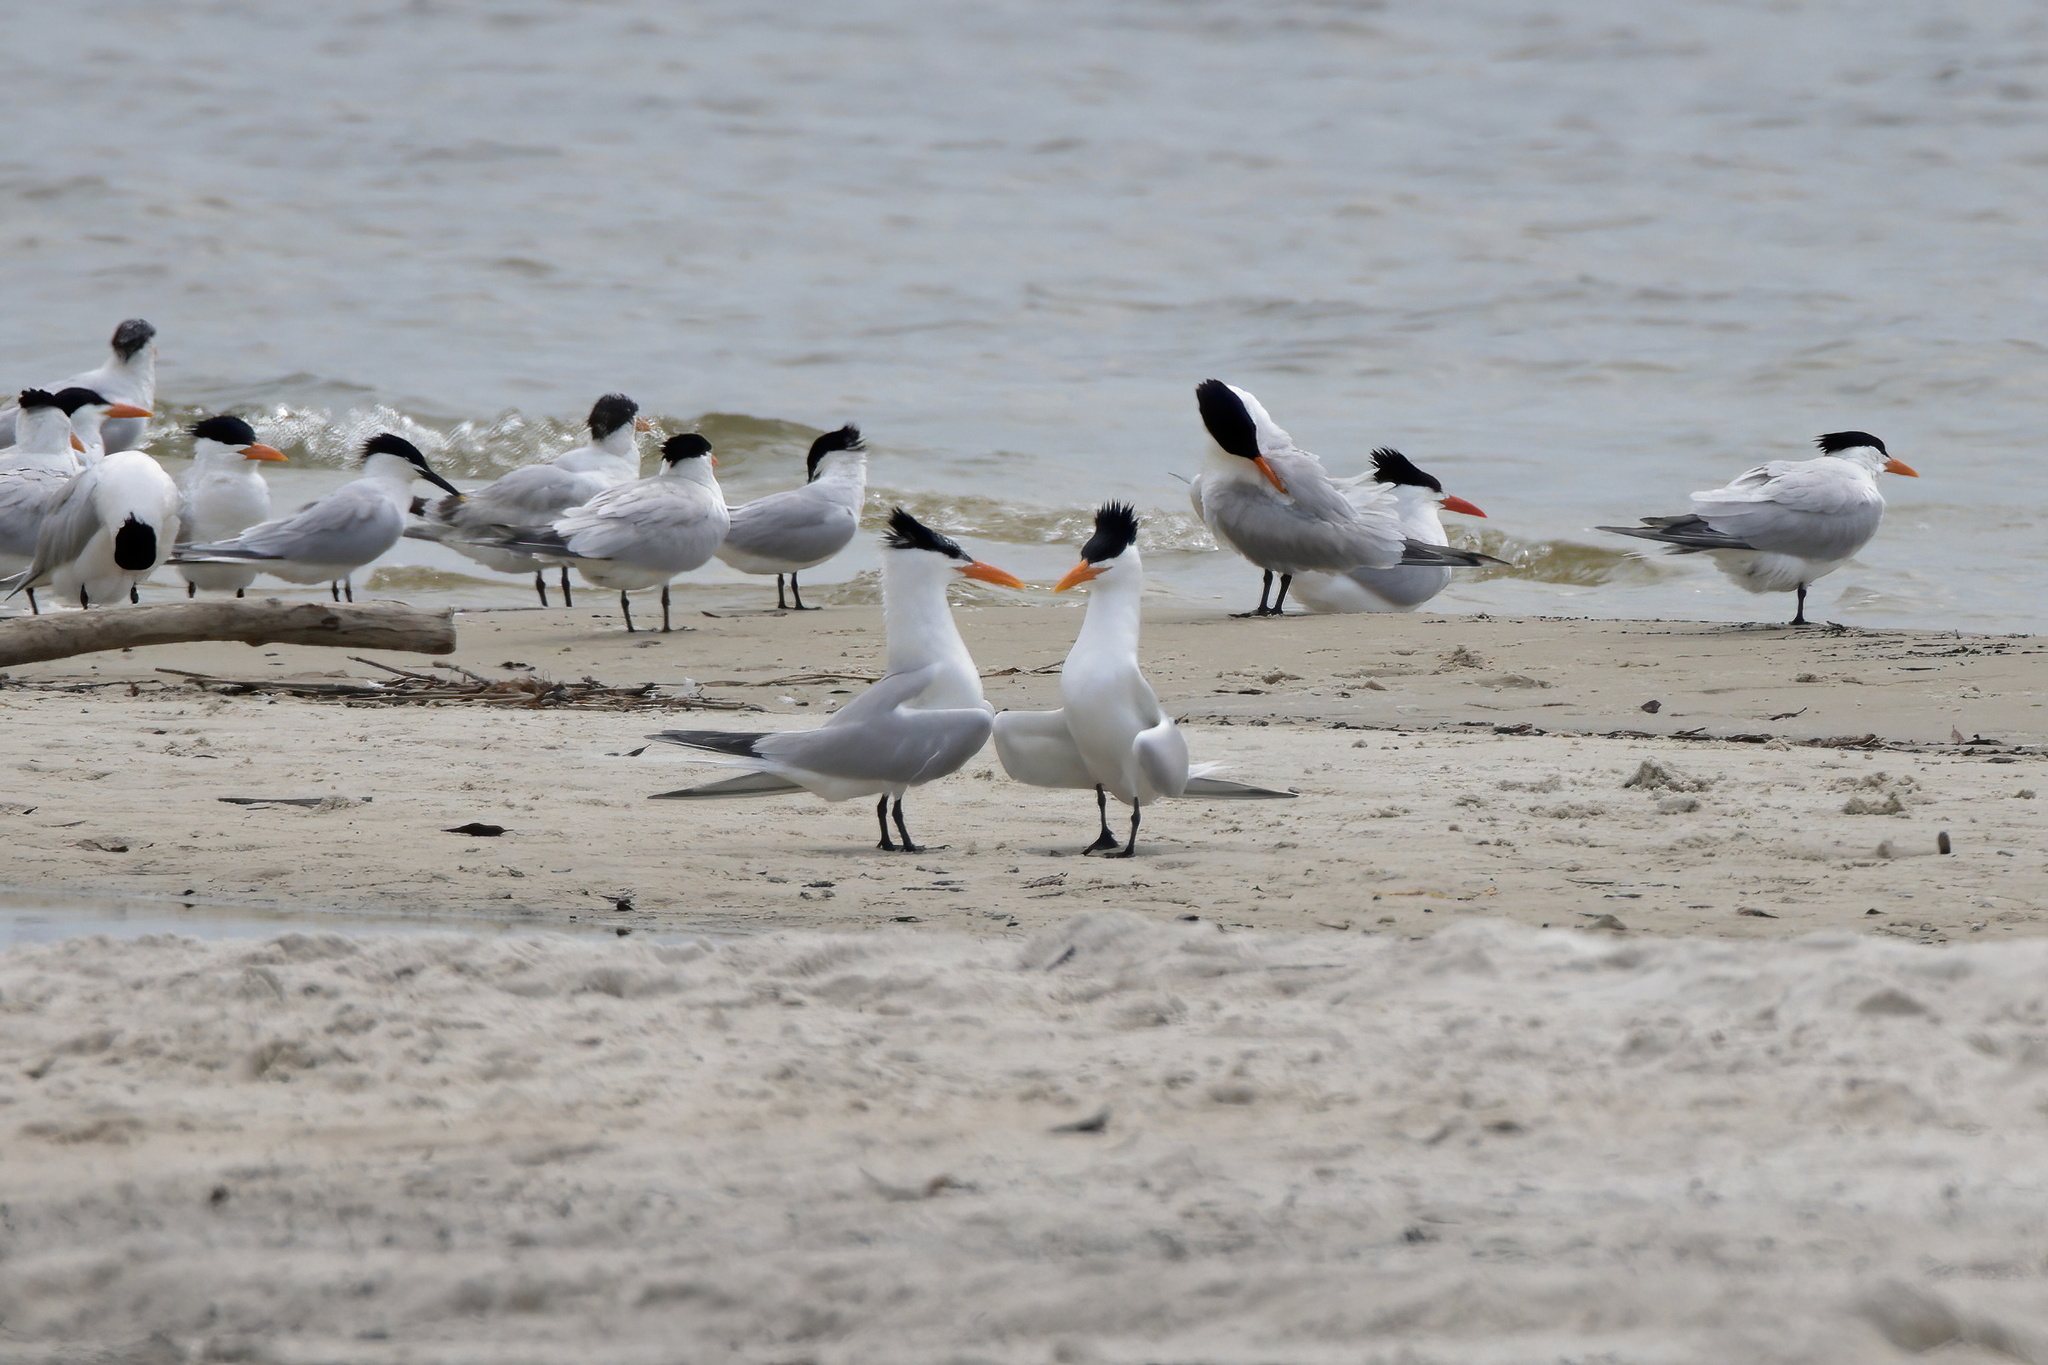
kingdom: Animalia
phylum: Chordata
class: Aves
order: Charadriiformes
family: Laridae
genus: Thalasseus
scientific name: Thalasseus maximus
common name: Royal tern
